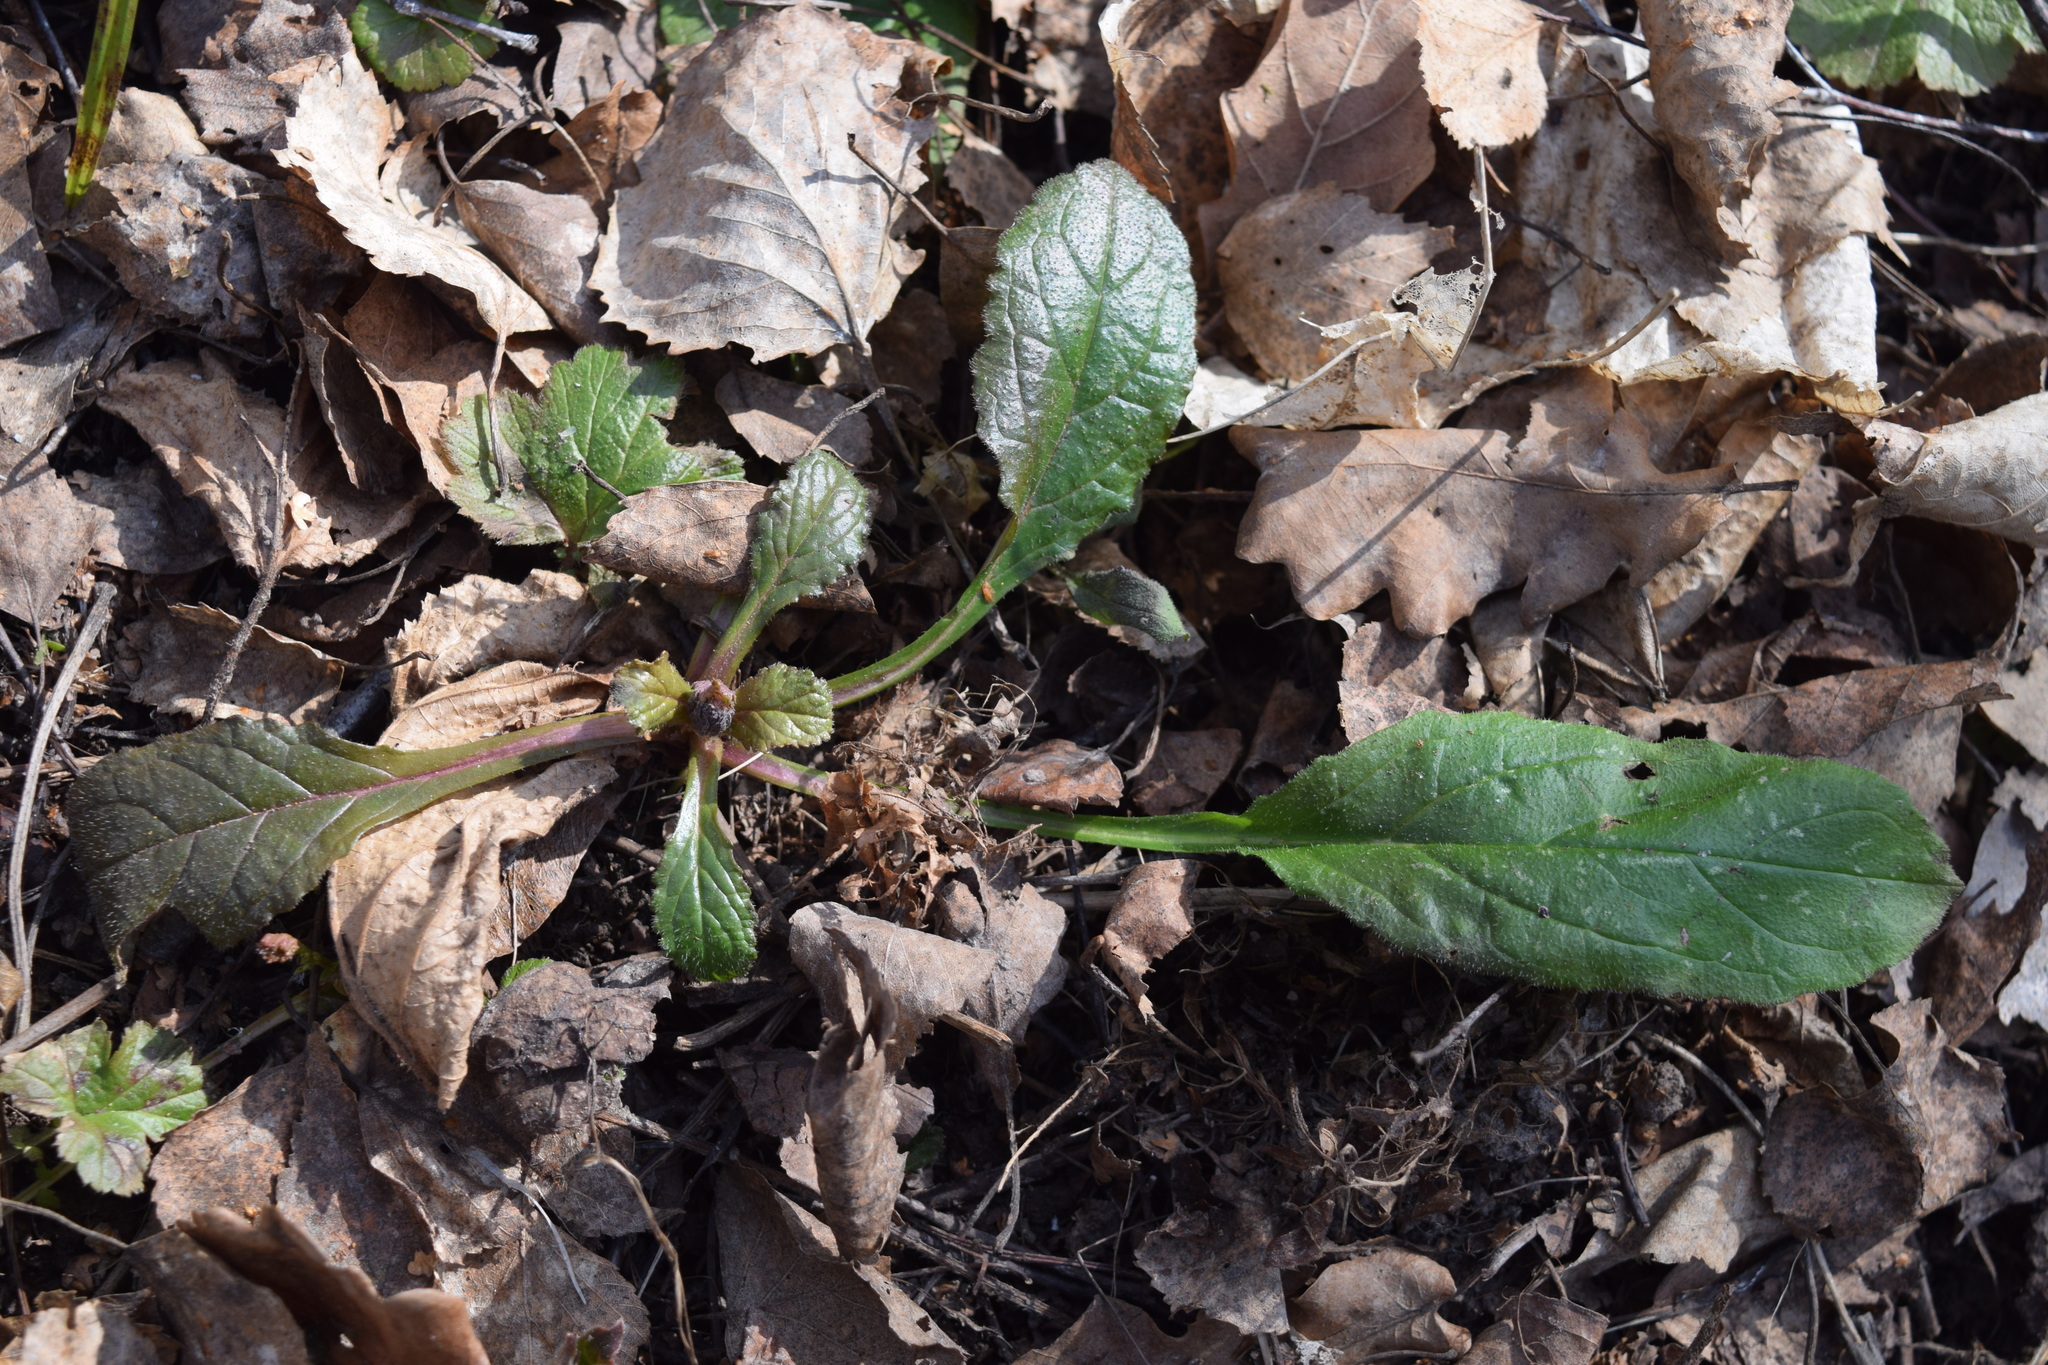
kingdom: Plantae
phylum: Tracheophyta
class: Magnoliopsida
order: Lamiales
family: Lamiaceae
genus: Ajuga
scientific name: Ajuga reptans
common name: Bugle
